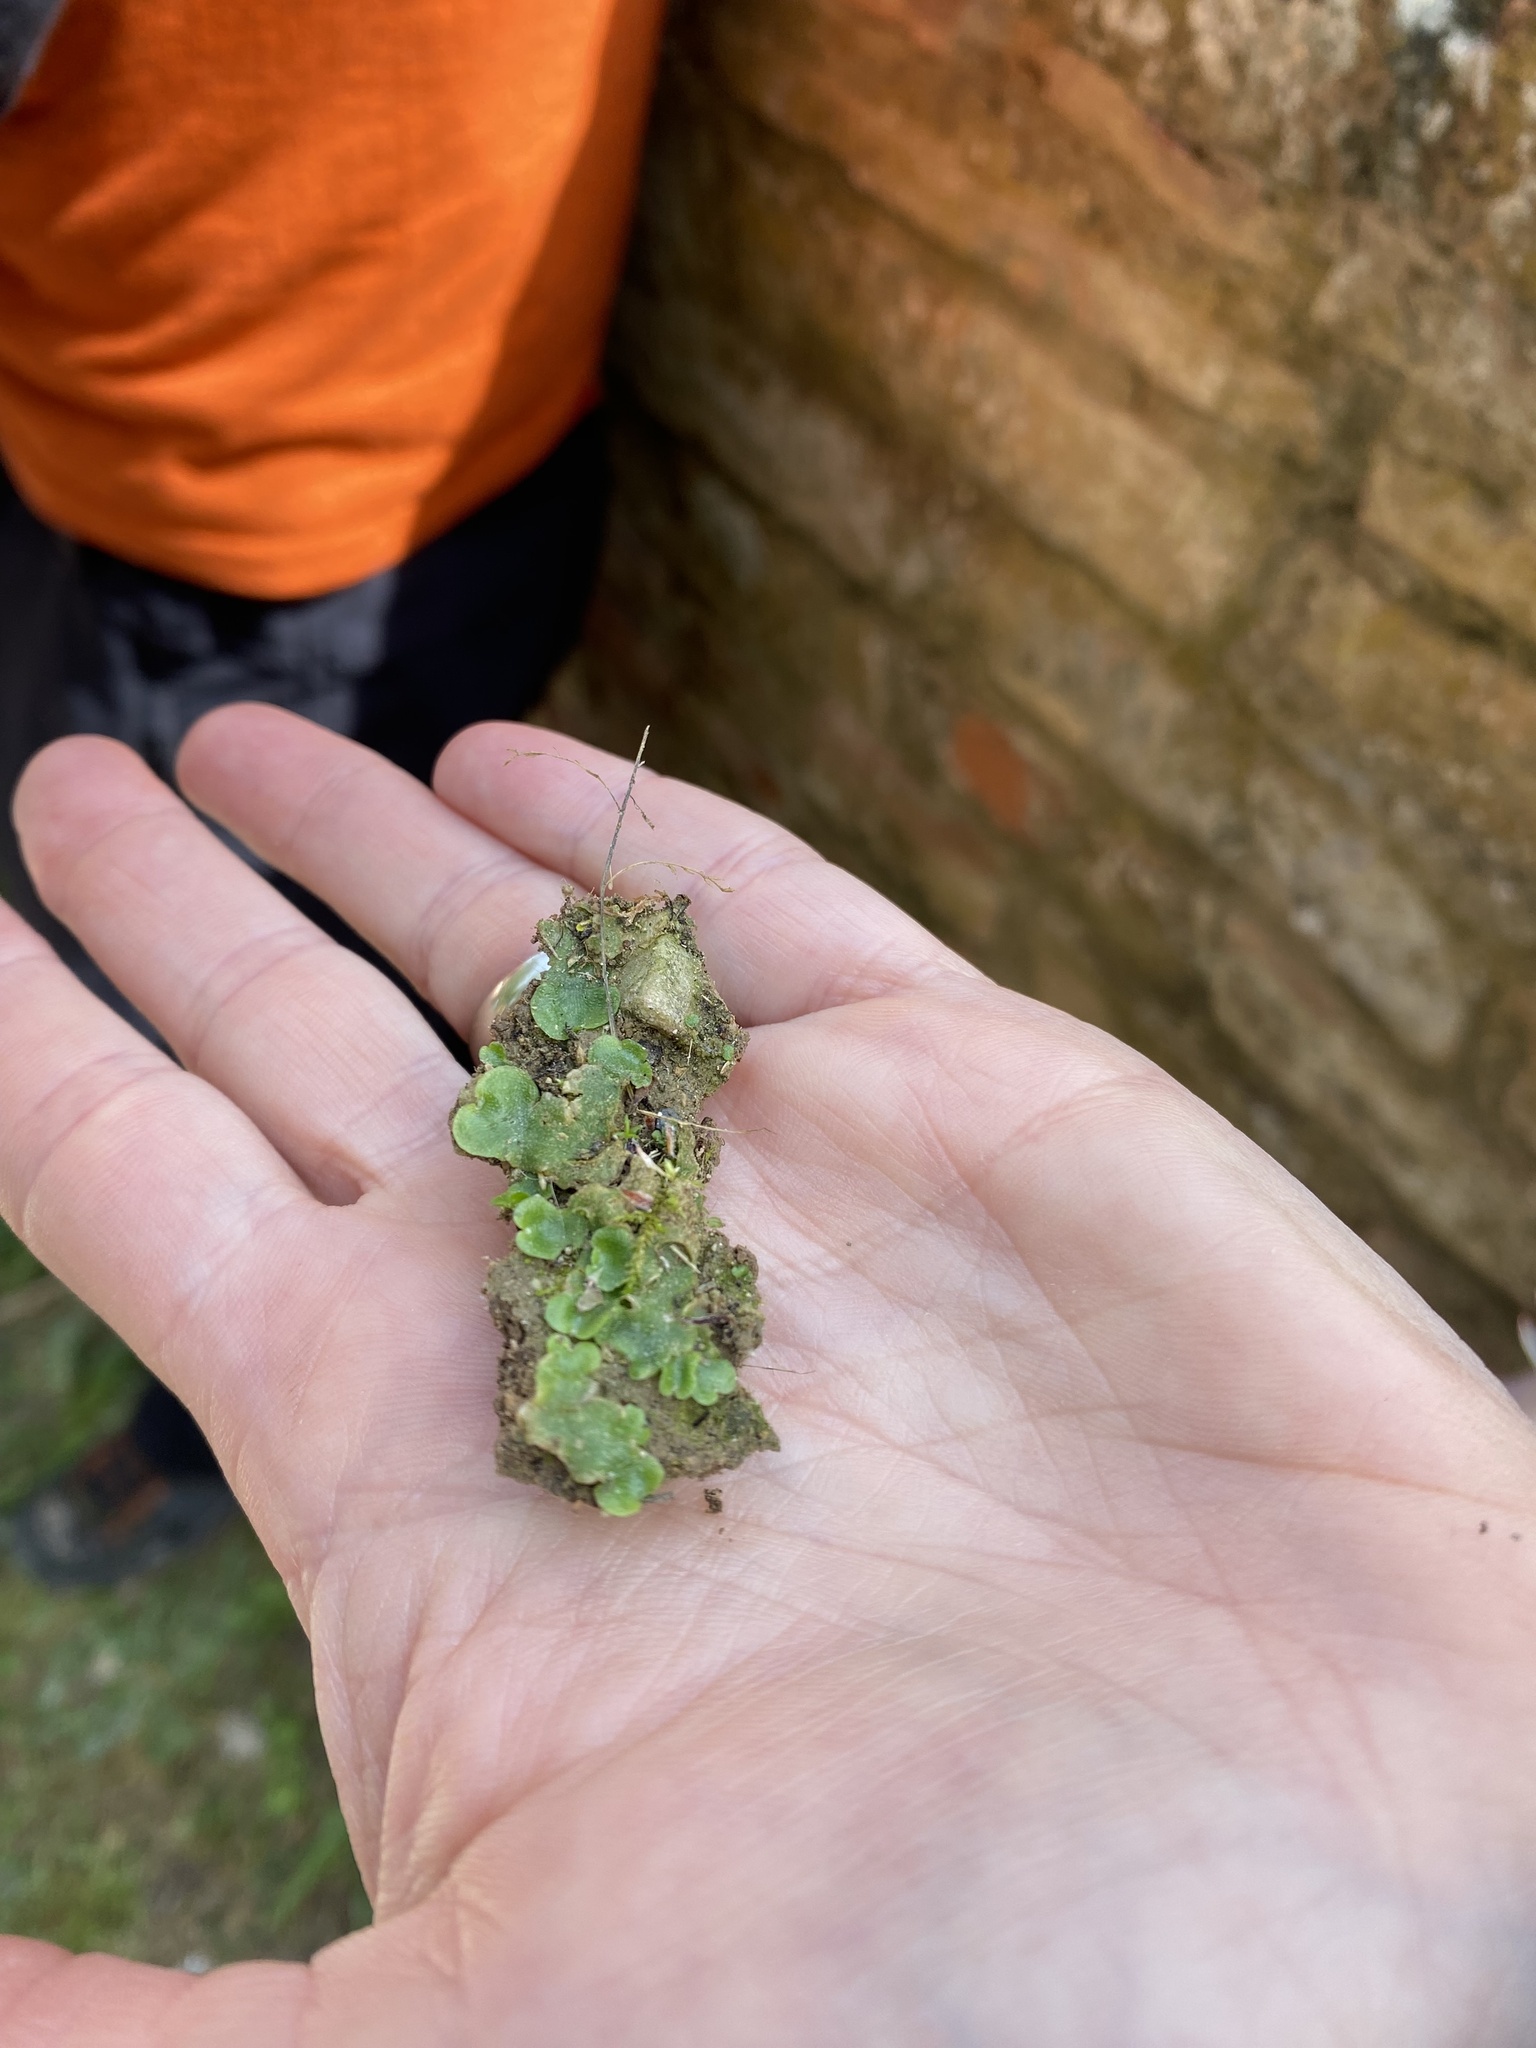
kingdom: Plantae
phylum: Marchantiophyta
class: Marchantiopsida
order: Lunulariales
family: Lunulariaceae
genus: Lunularia
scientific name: Lunularia cruciata
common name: Crescent-cup liverwort
